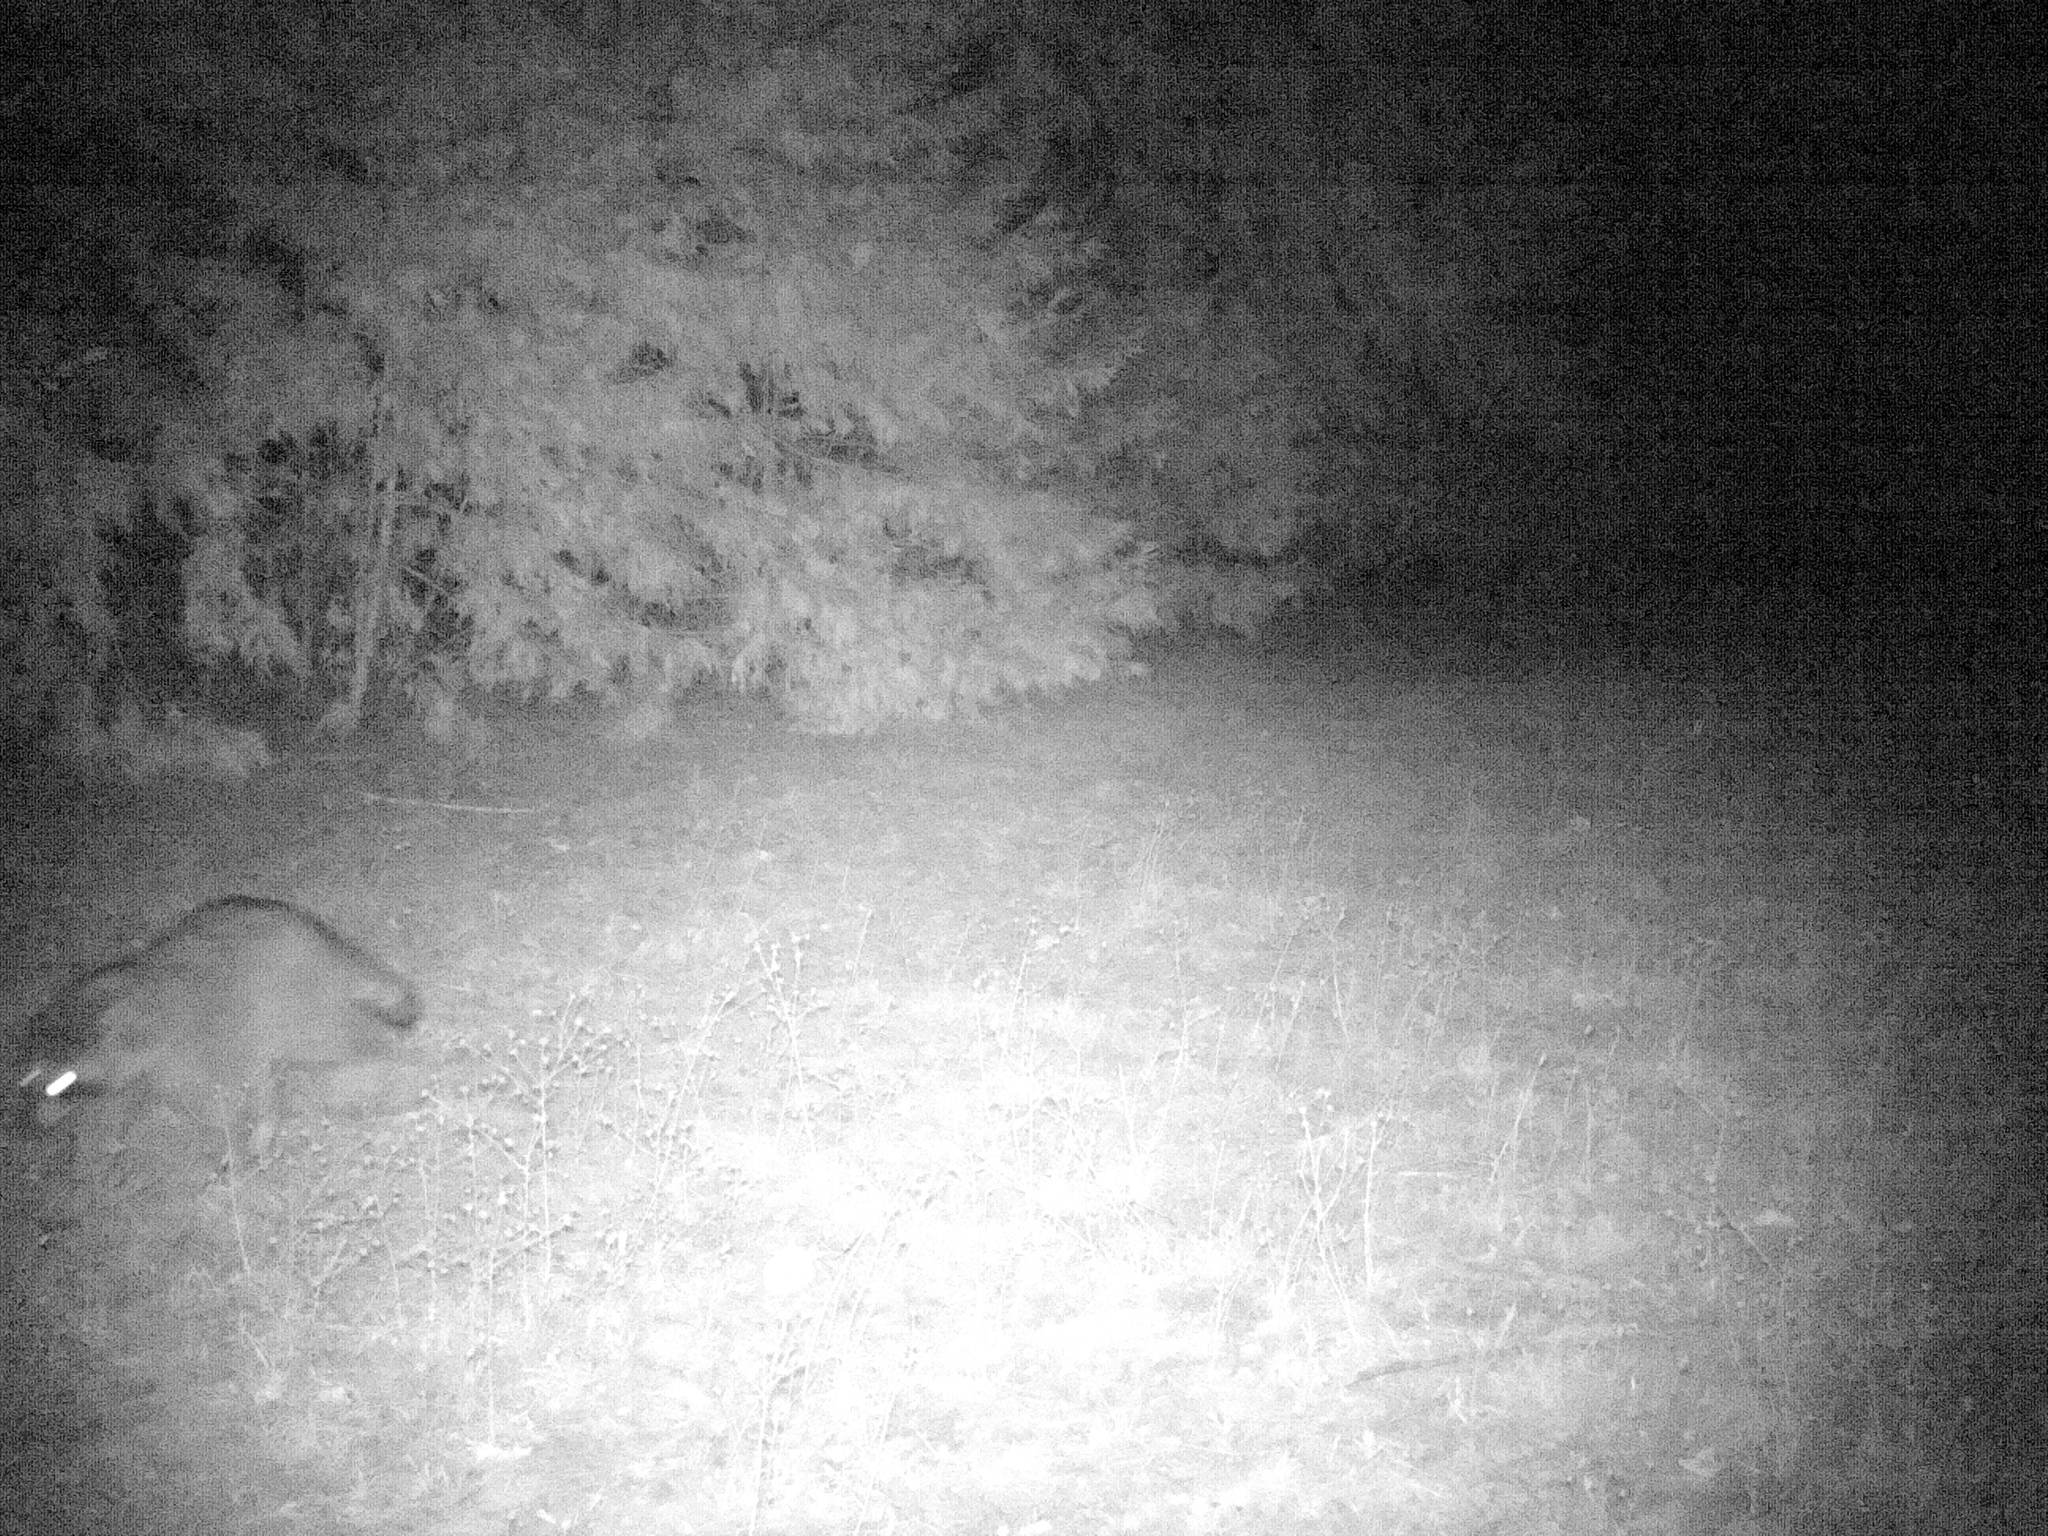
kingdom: Animalia
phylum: Chordata
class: Mammalia
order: Carnivora
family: Procyonidae
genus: Procyon
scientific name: Procyon lotor
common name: Raccoon
